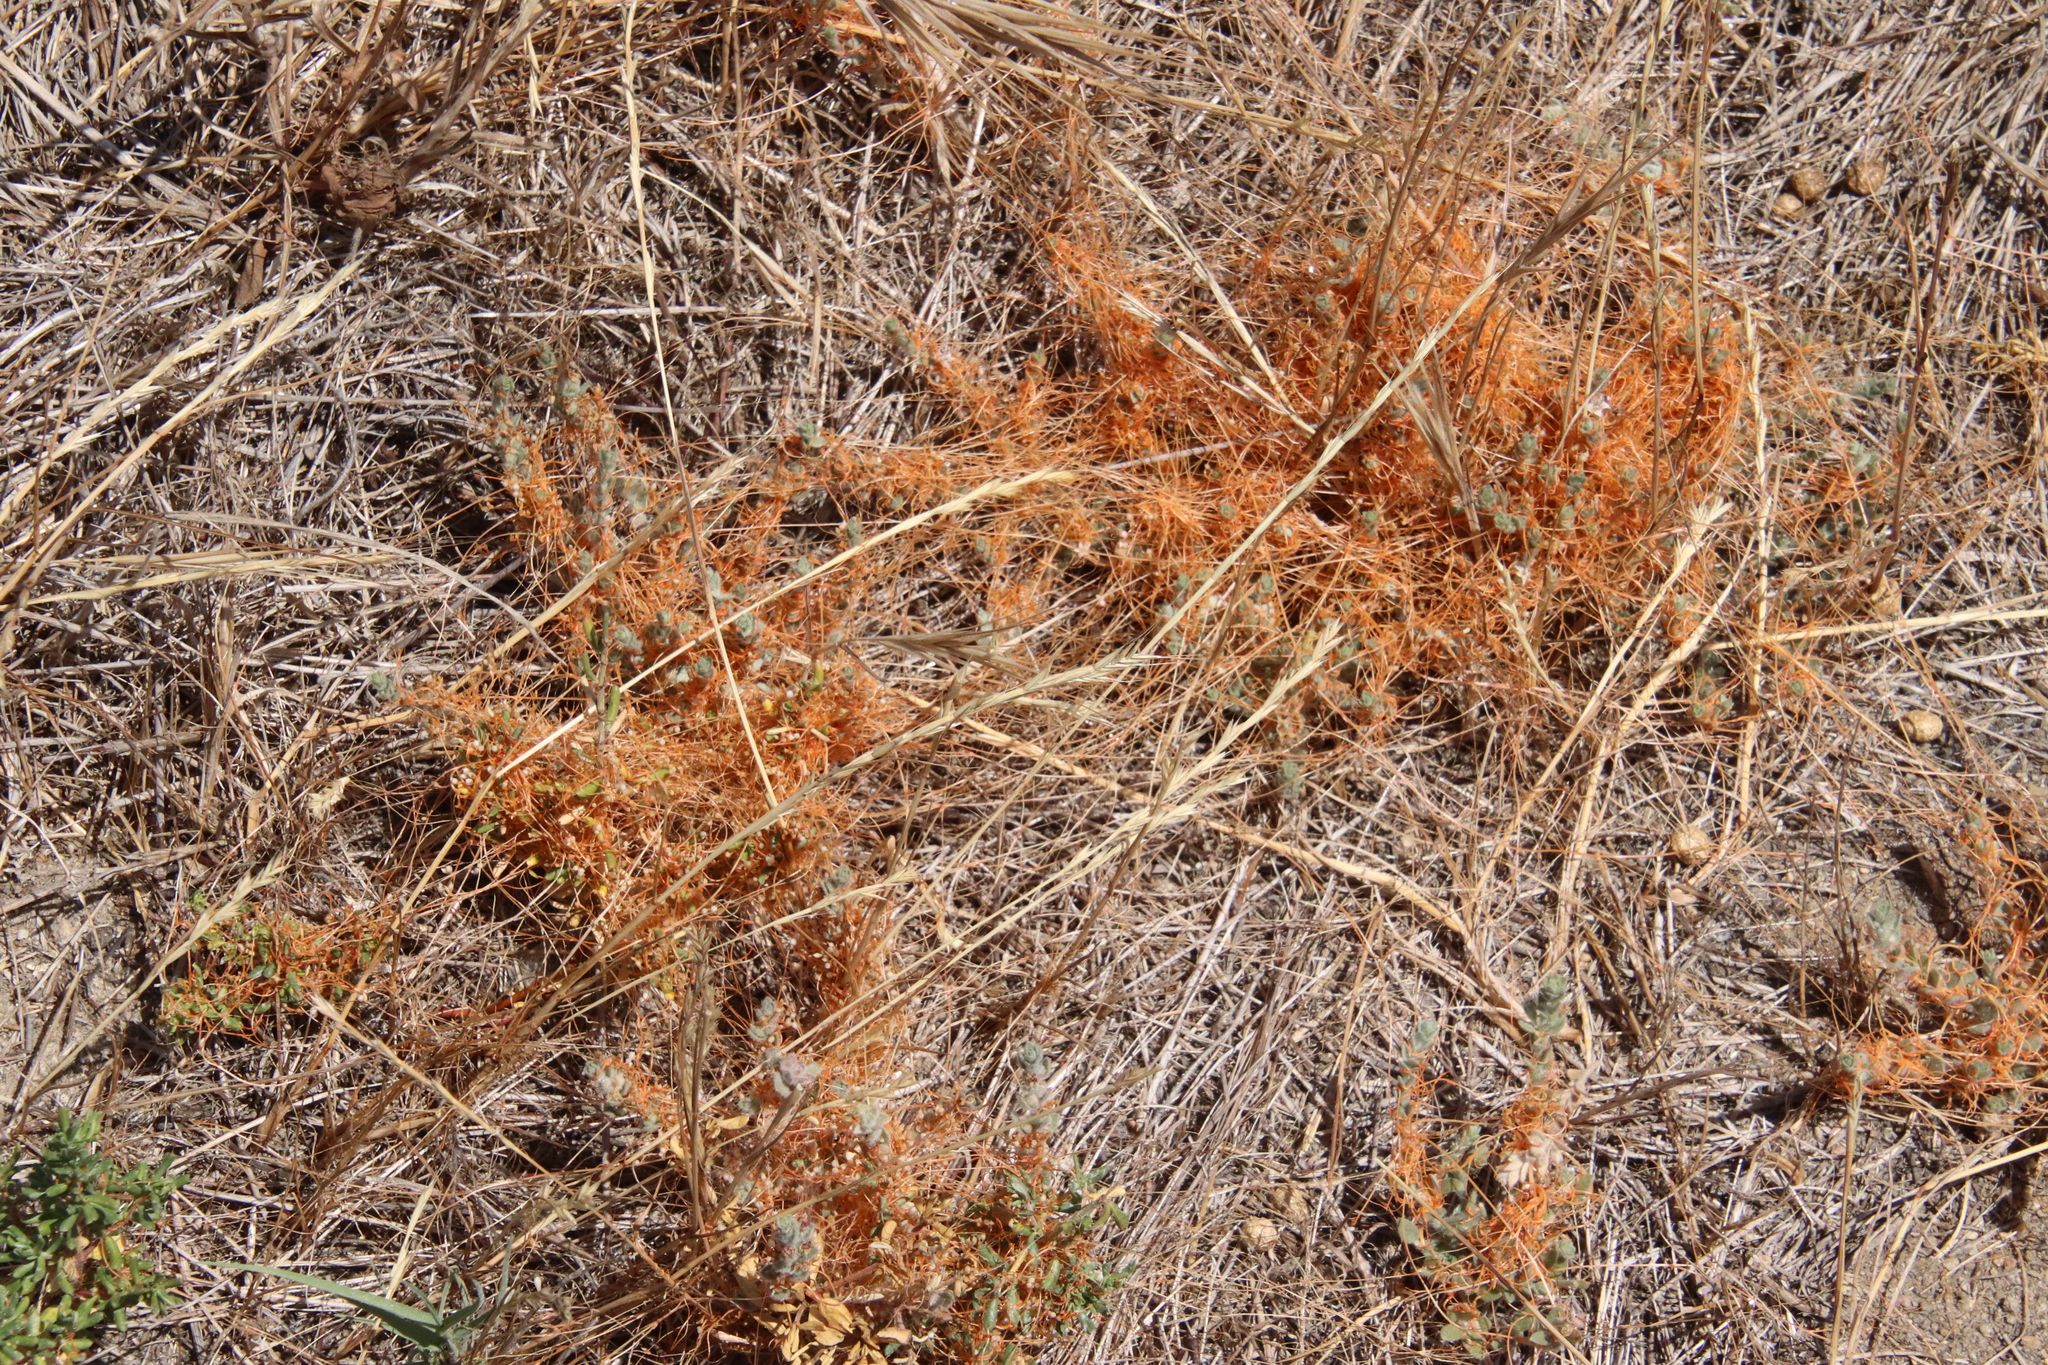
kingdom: Plantae
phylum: Tracheophyta
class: Magnoliopsida
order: Solanales
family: Convolvulaceae
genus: Cuscuta
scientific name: Cuscuta pacifica
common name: Large saltmarsh dodder
